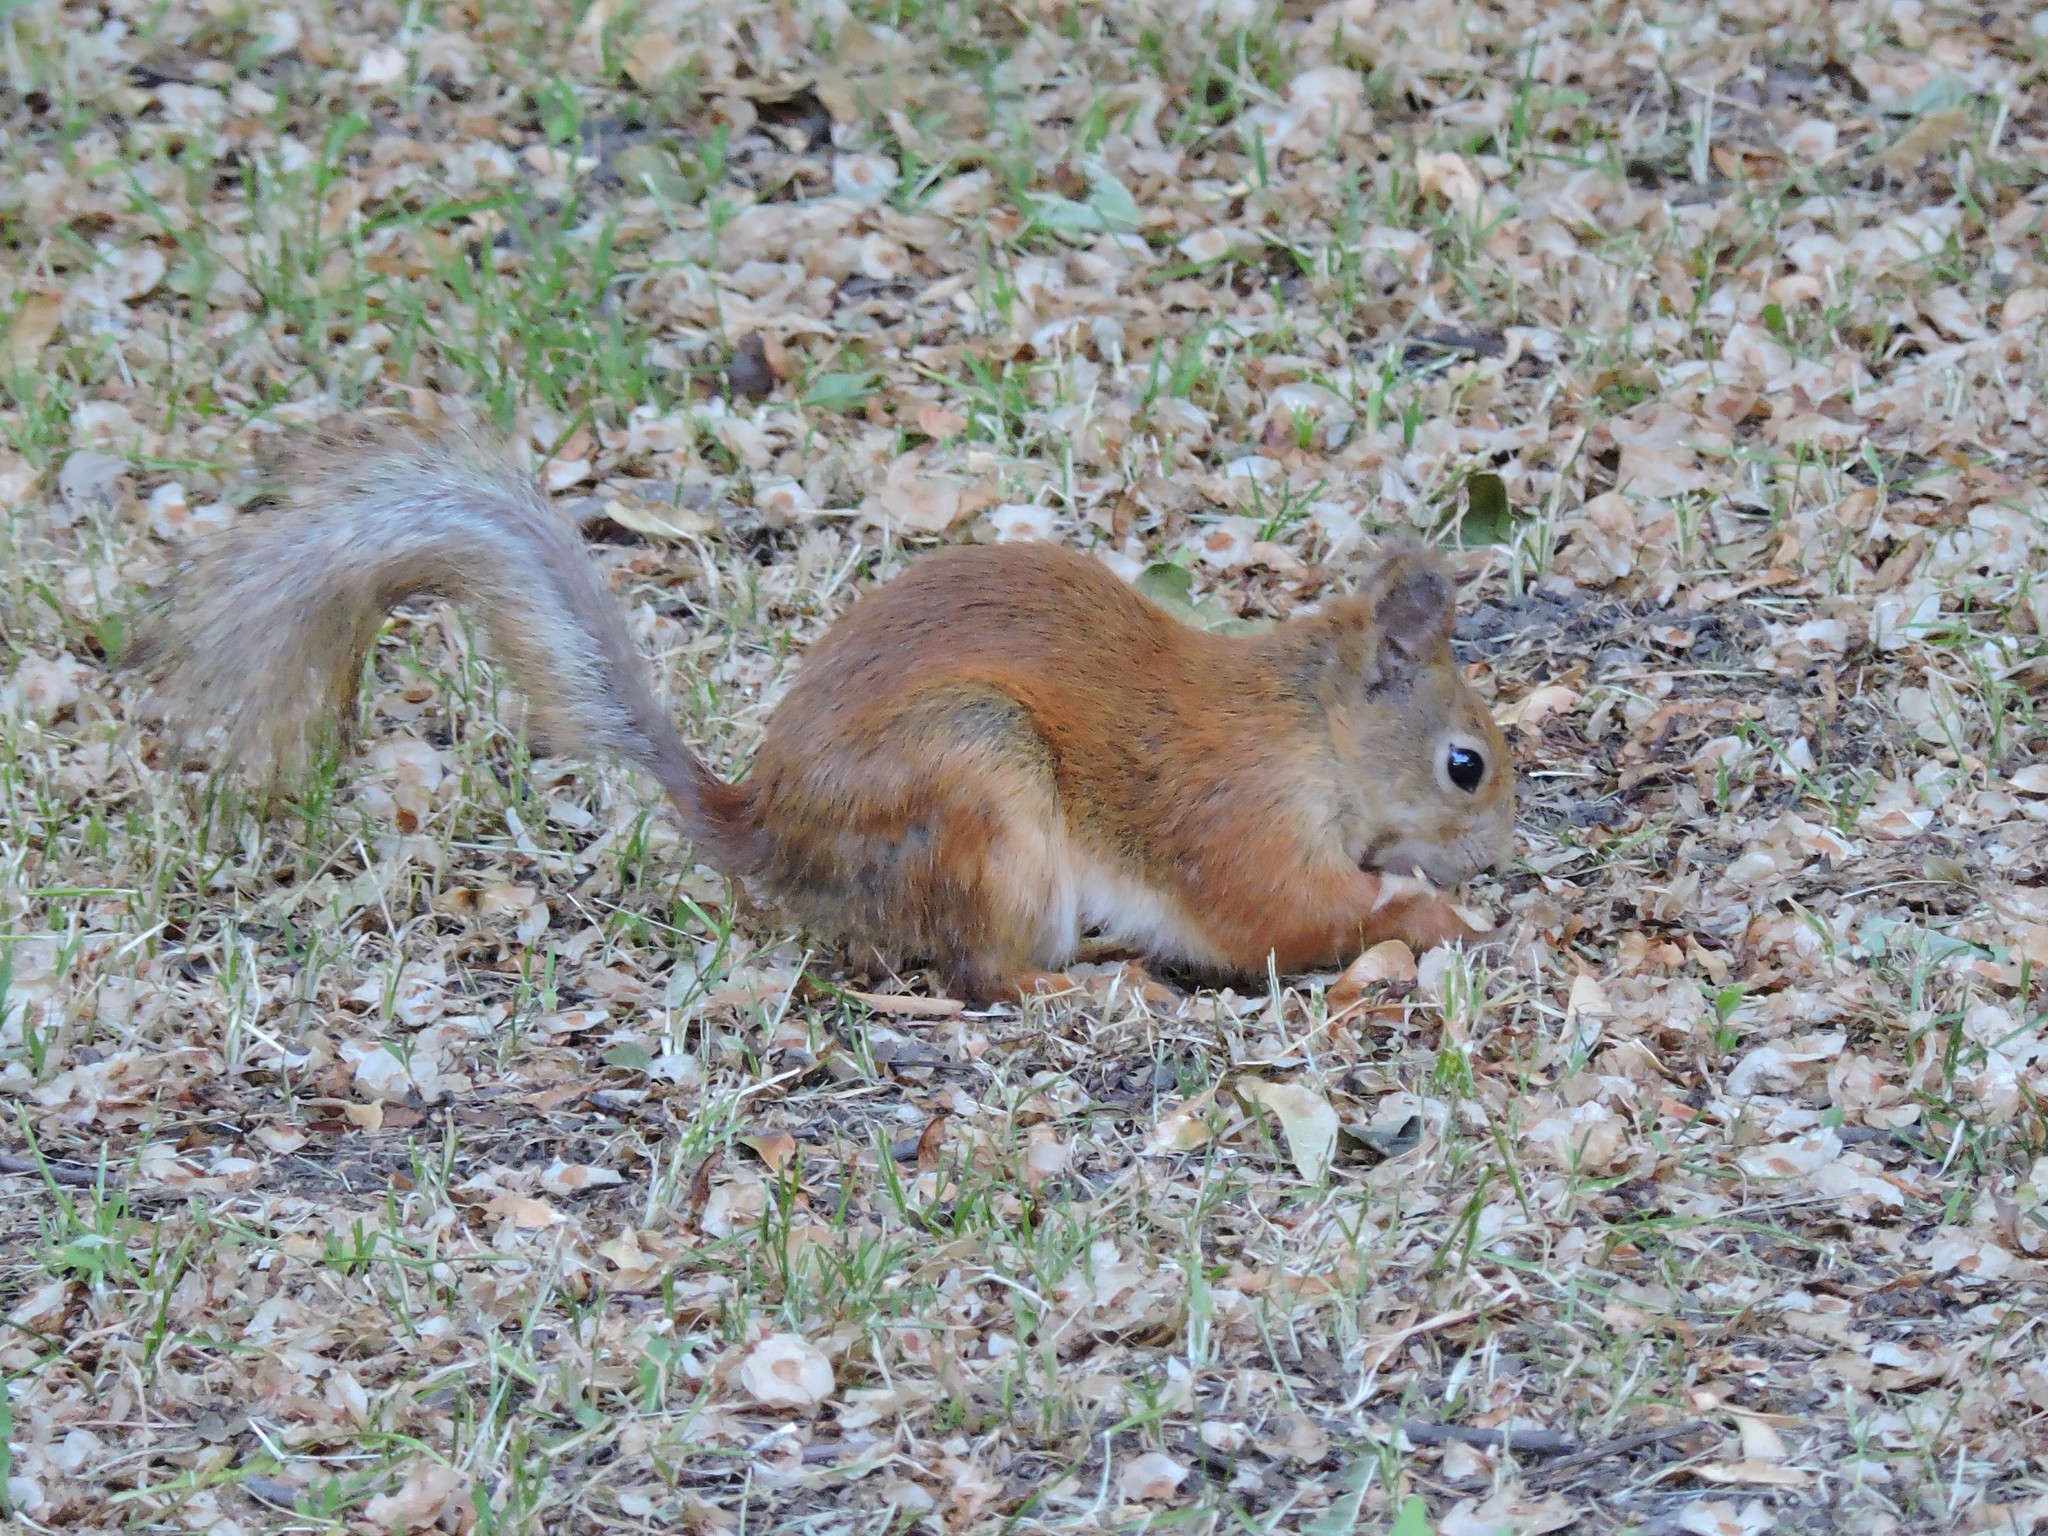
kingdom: Animalia
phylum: Chordata
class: Mammalia
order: Rodentia
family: Sciuridae
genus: Sciurus
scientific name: Sciurus vulgaris
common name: Eurasian red squirrel
